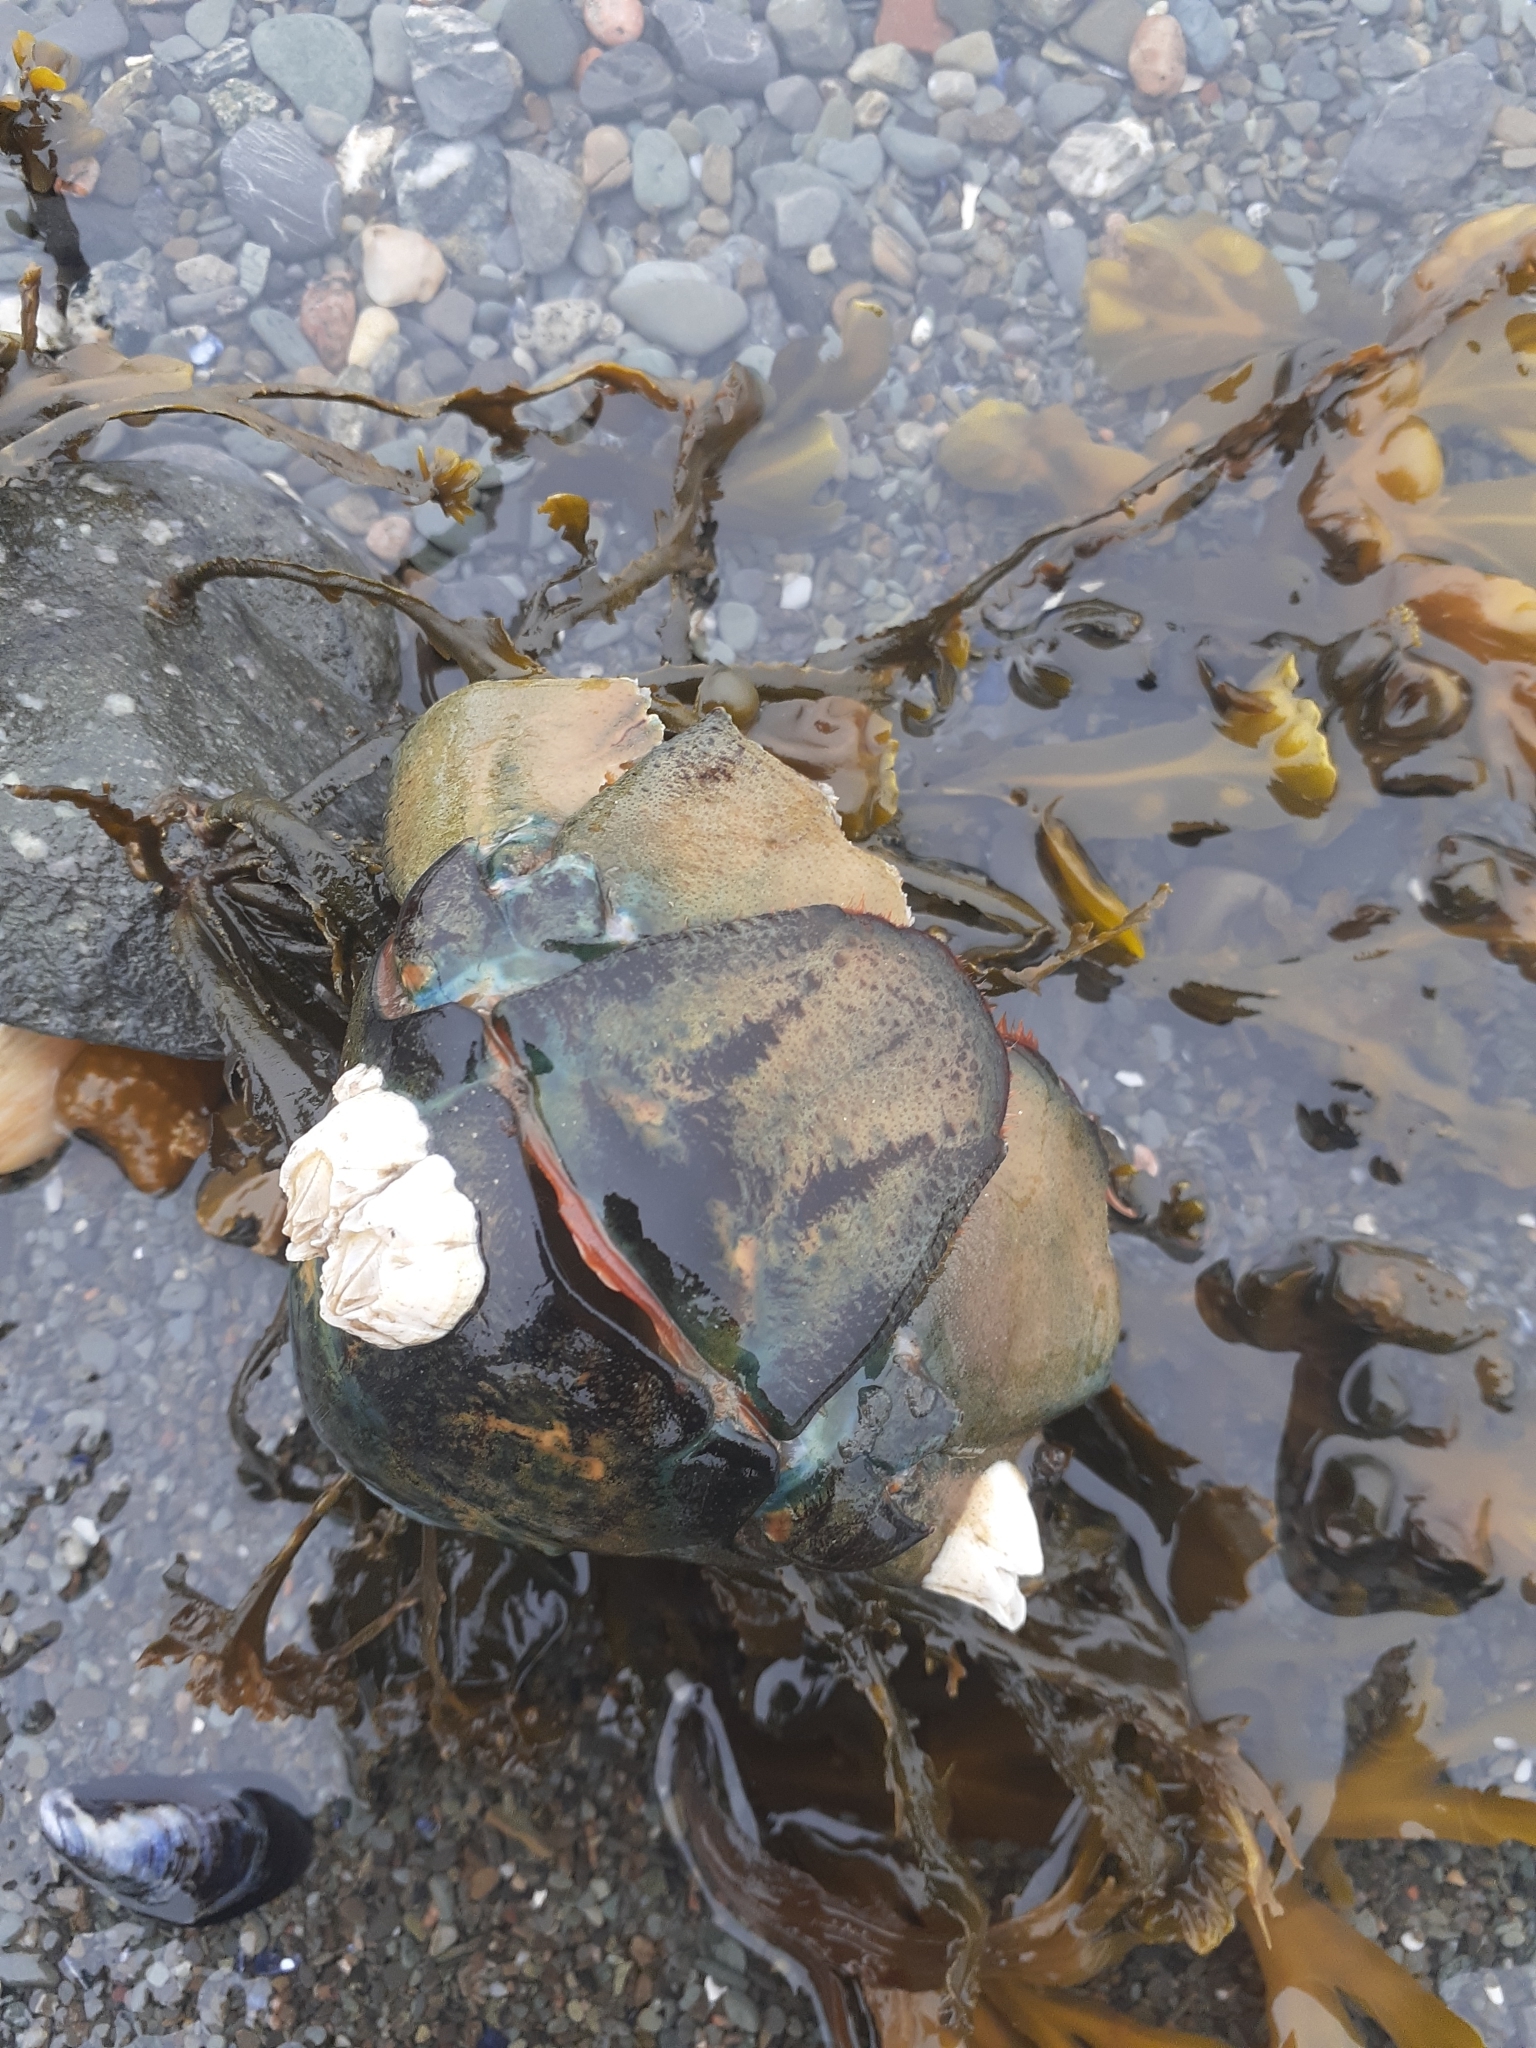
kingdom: Animalia
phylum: Arthropoda
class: Malacostraca
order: Decapoda
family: Nephropidae
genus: Homarus
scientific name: Homarus americanus
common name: American lobster
